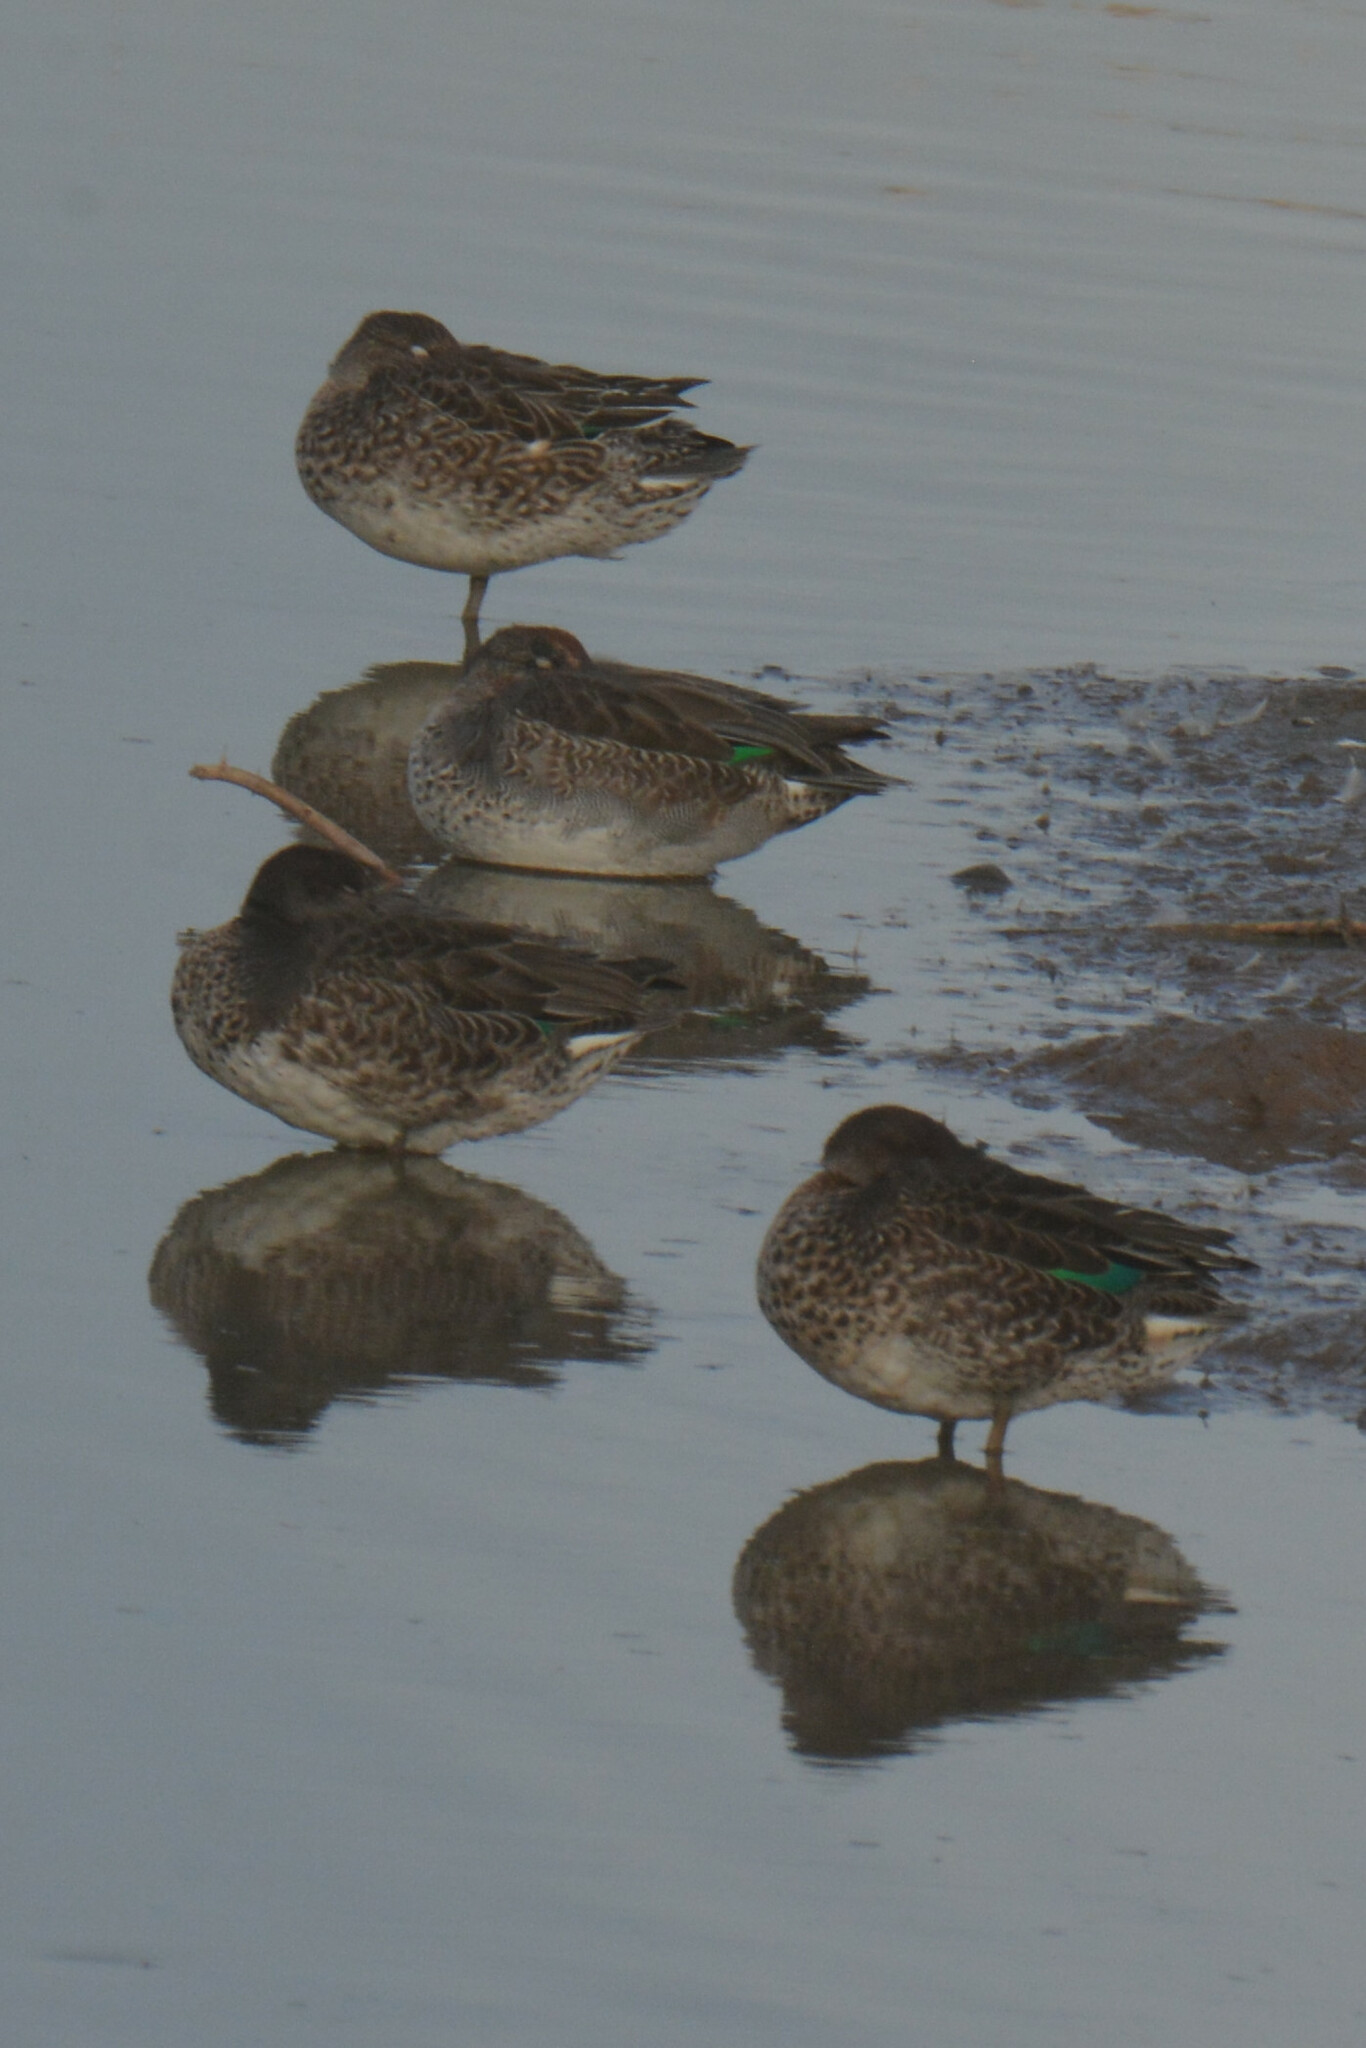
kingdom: Animalia
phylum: Chordata
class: Aves
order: Anseriformes
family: Anatidae
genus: Anas
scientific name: Anas crecca
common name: Eurasian teal
